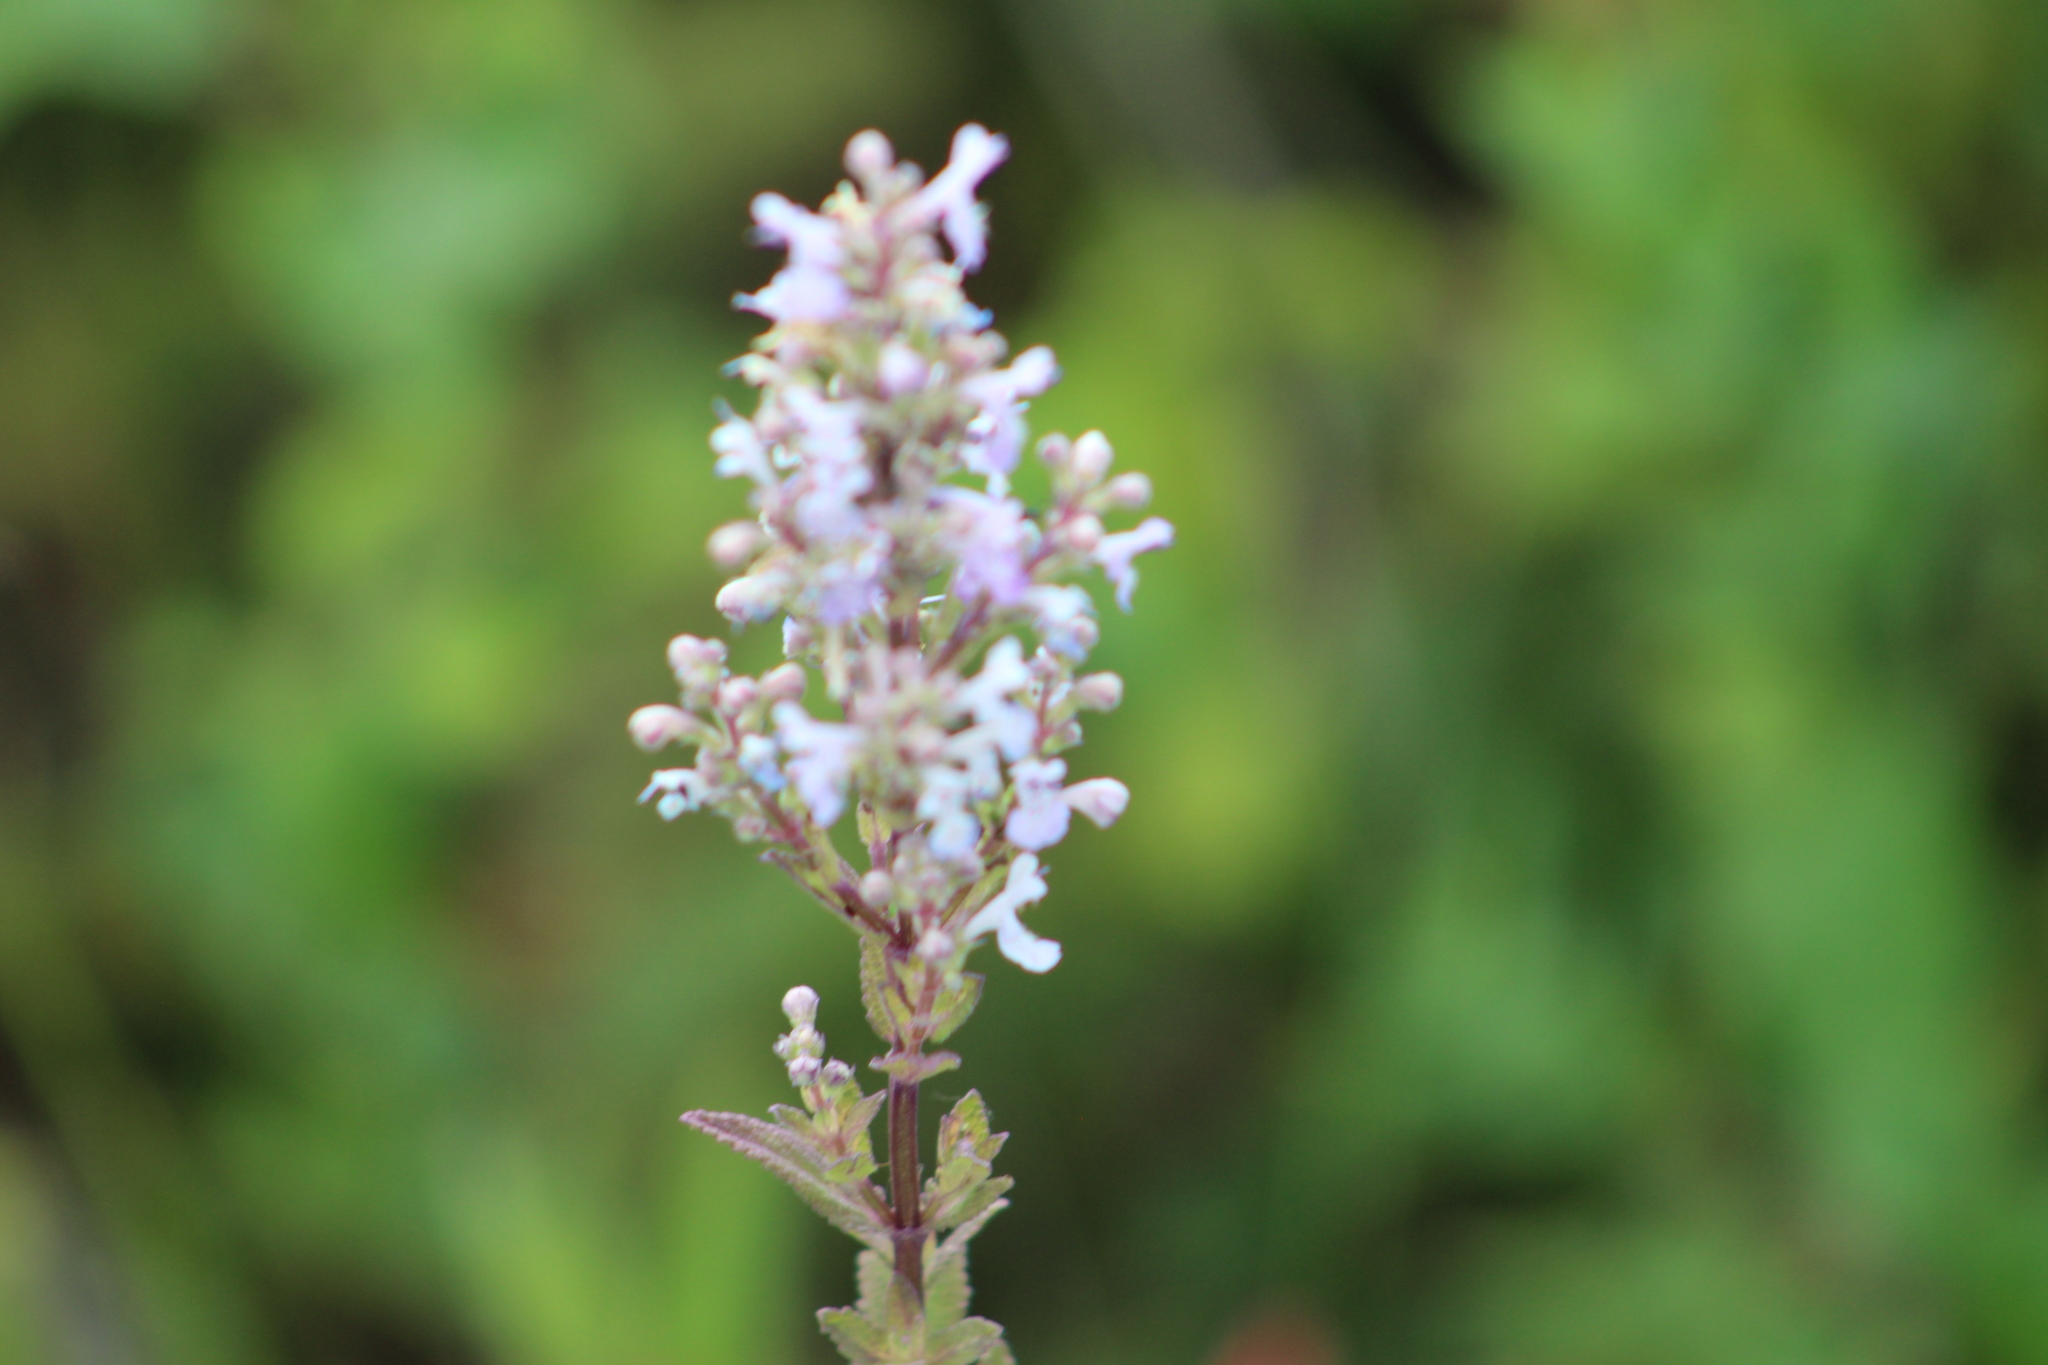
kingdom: Plantae
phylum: Tracheophyta
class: Magnoliopsida
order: Lamiales
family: Lamiaceae
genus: Nepeta
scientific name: Nepeta cataria
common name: Catnip
